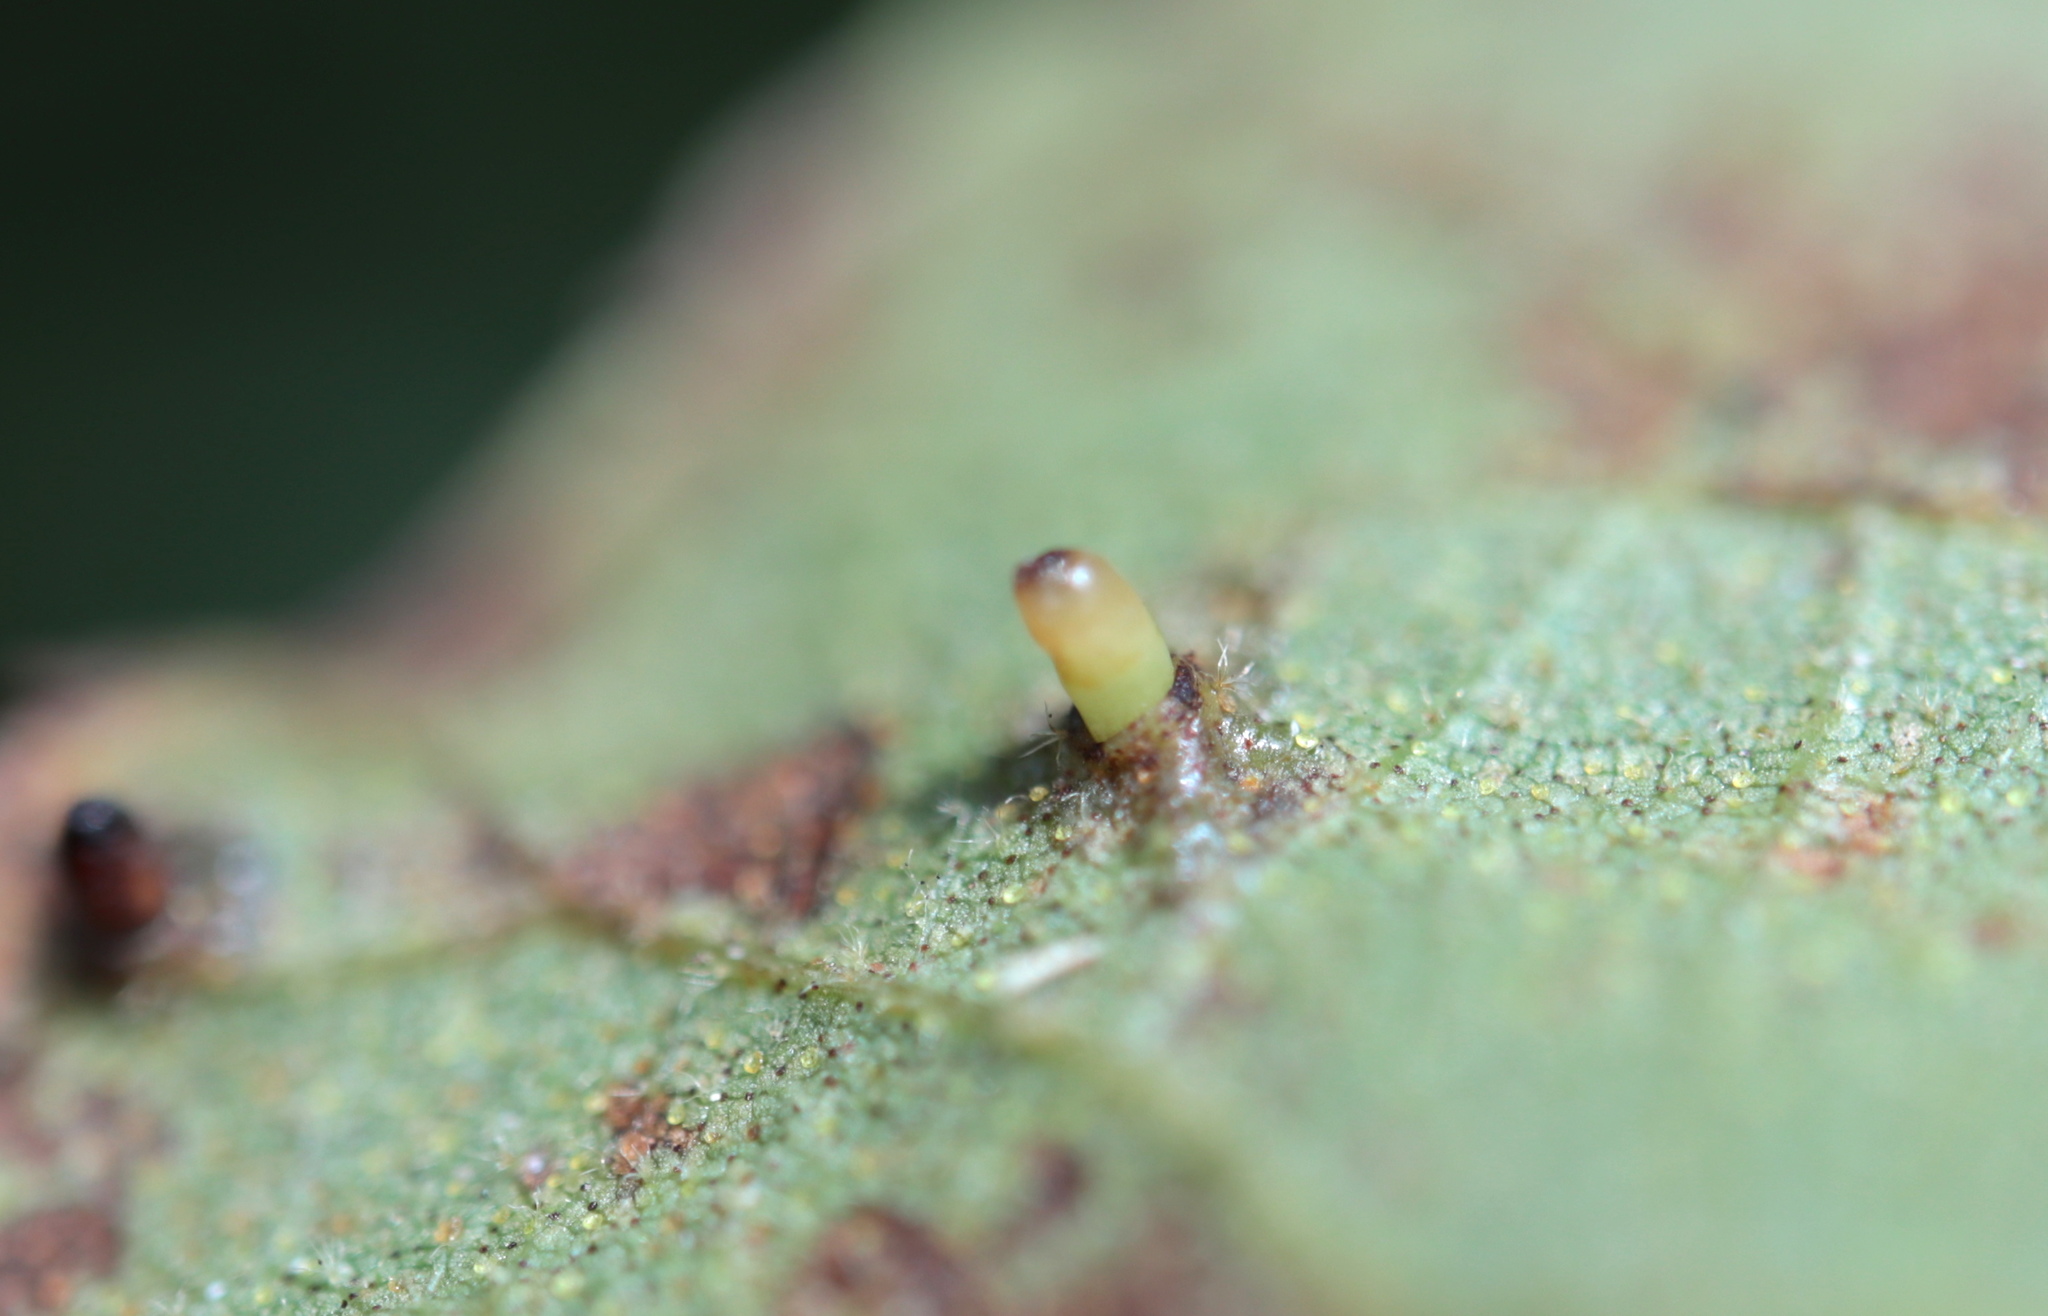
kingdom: Animalia
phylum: Arthropoda
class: Insecta
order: Diptera
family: Cecidomyiidae
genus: Caryomyia
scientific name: Caryomyia tubicola
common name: Hickory bullet gall midge
